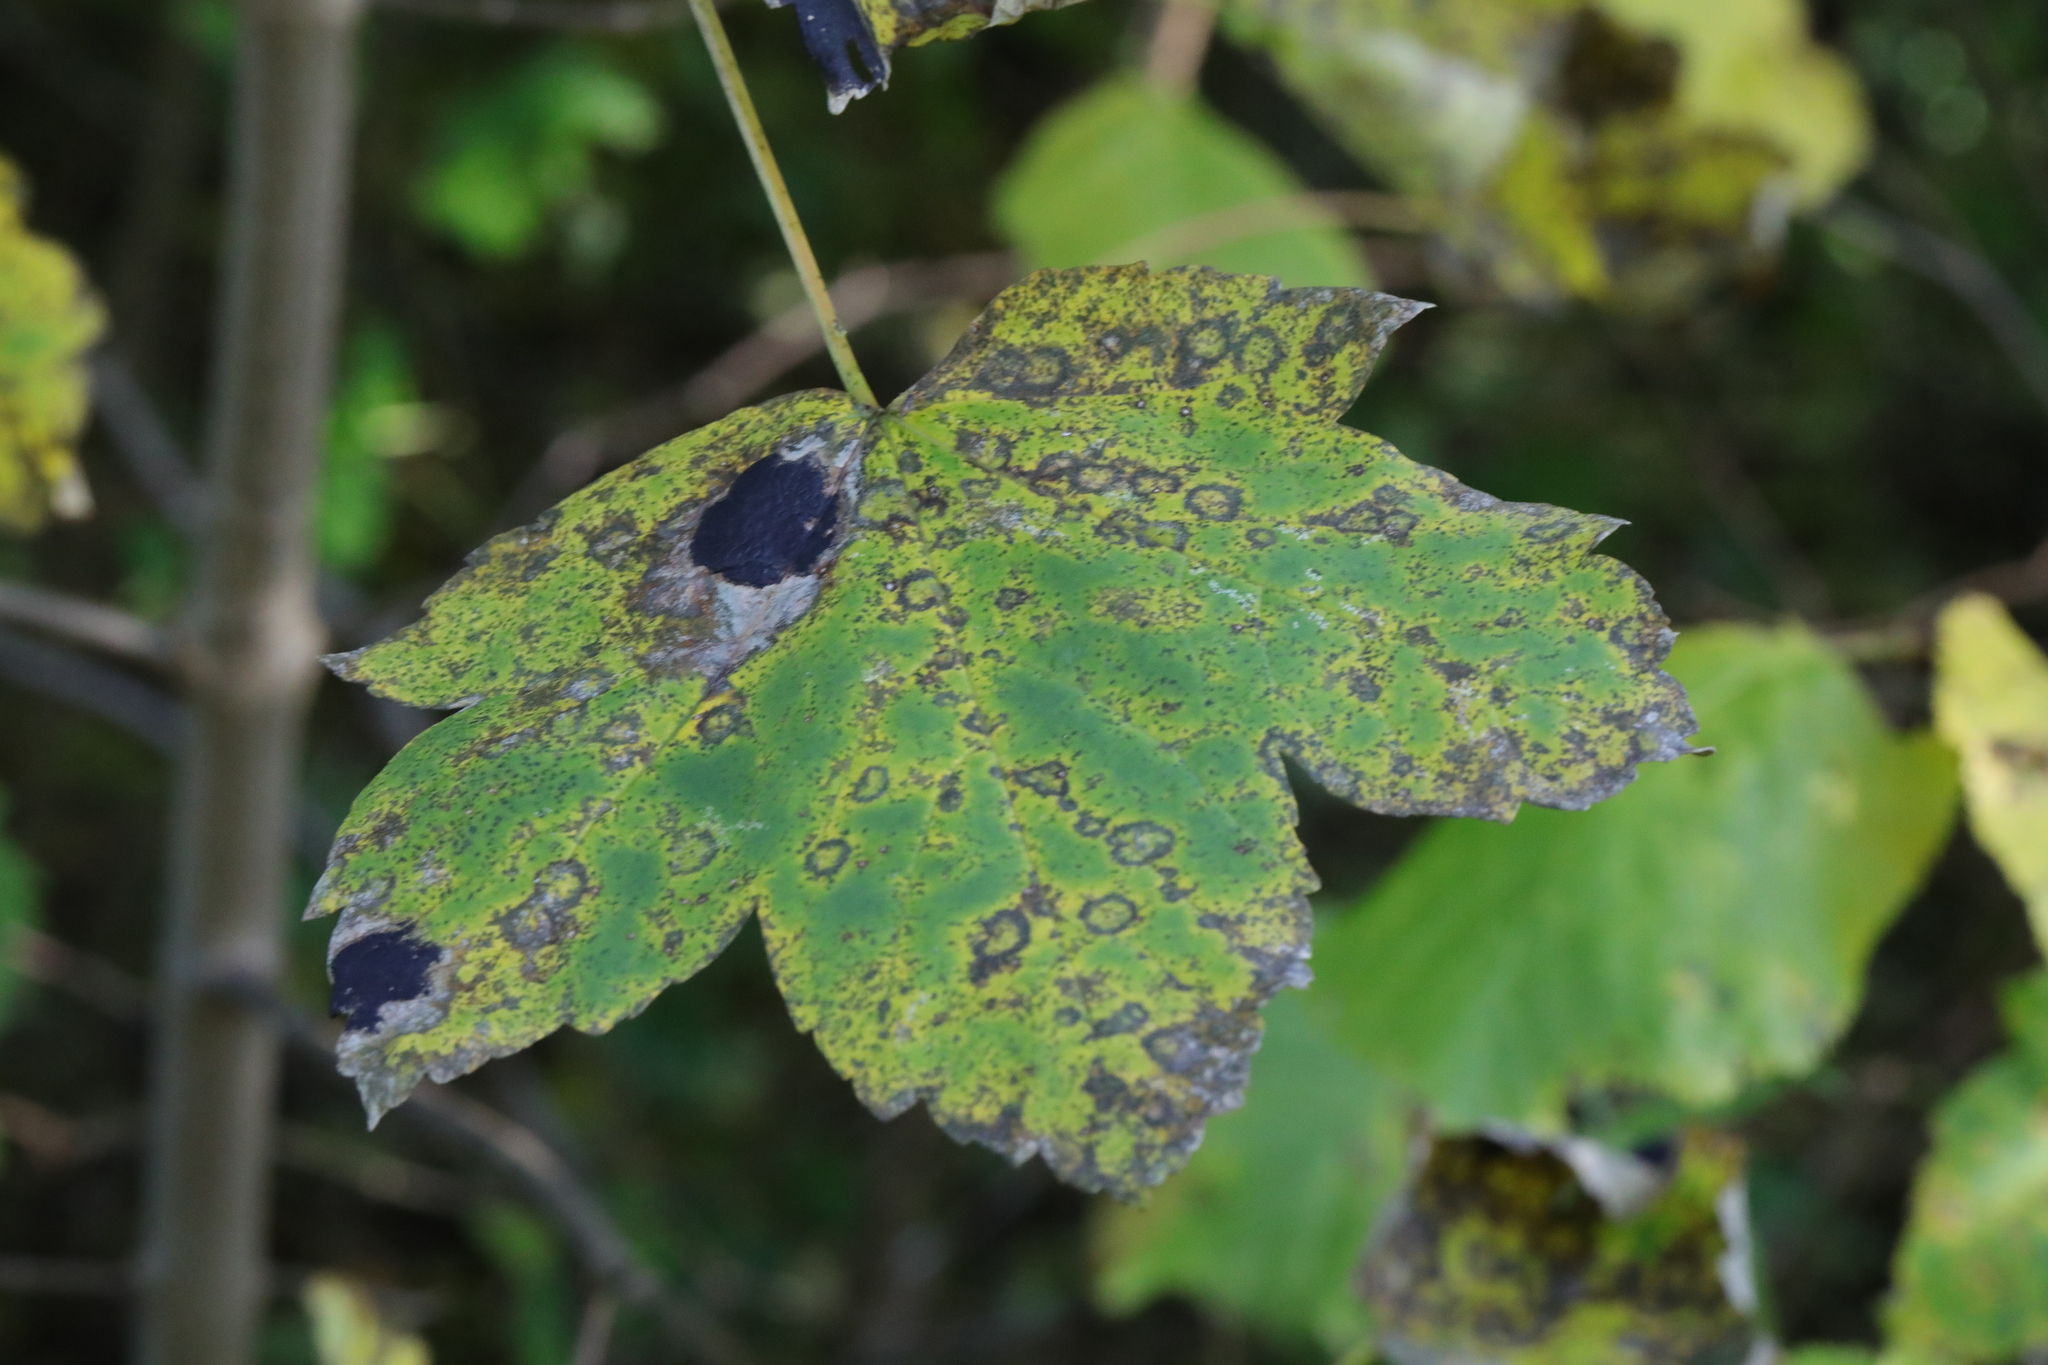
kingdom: Plantae
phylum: Tracheophyta
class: Magnoliopsida
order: Sapindales
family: Sapindaceae
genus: Acer
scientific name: Acer pseudoplatanus
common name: Sycamore
